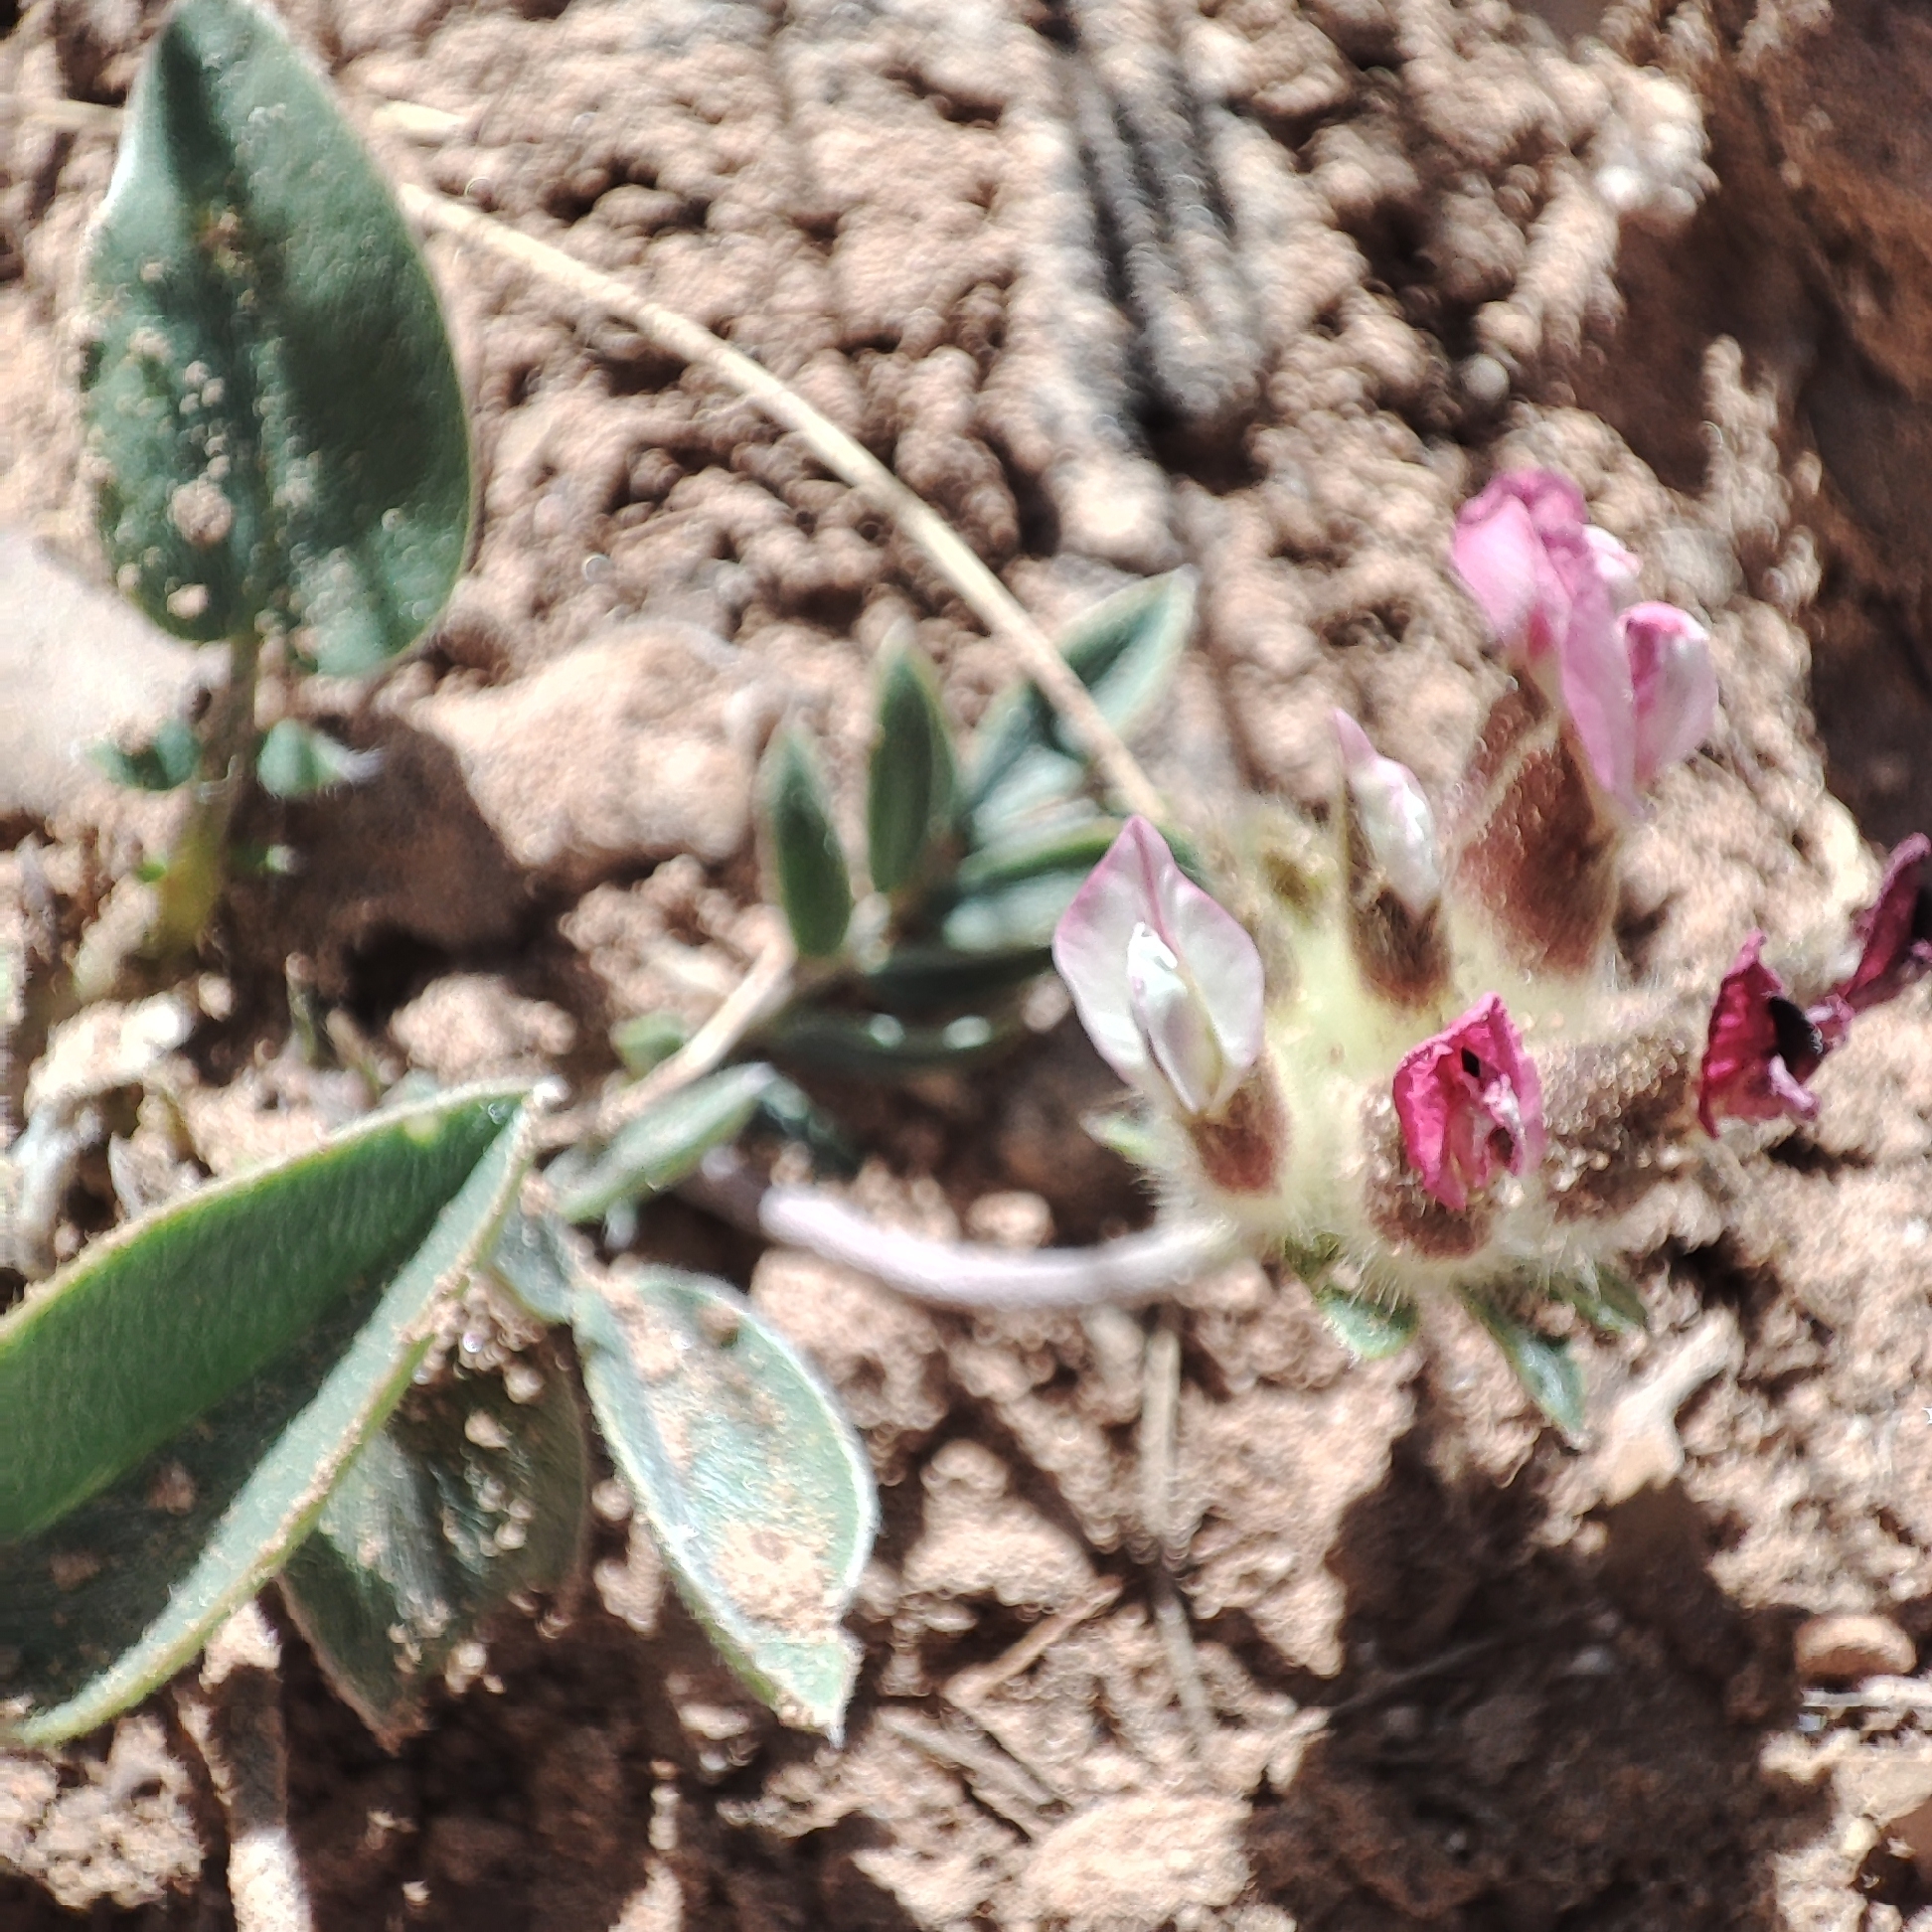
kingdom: Plantae
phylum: Tracheophyta
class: Magnoliopsida
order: Fabales
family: Fabaceae
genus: Anthyllis
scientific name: Anthyllis vulneraria
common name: Kidney vetch
